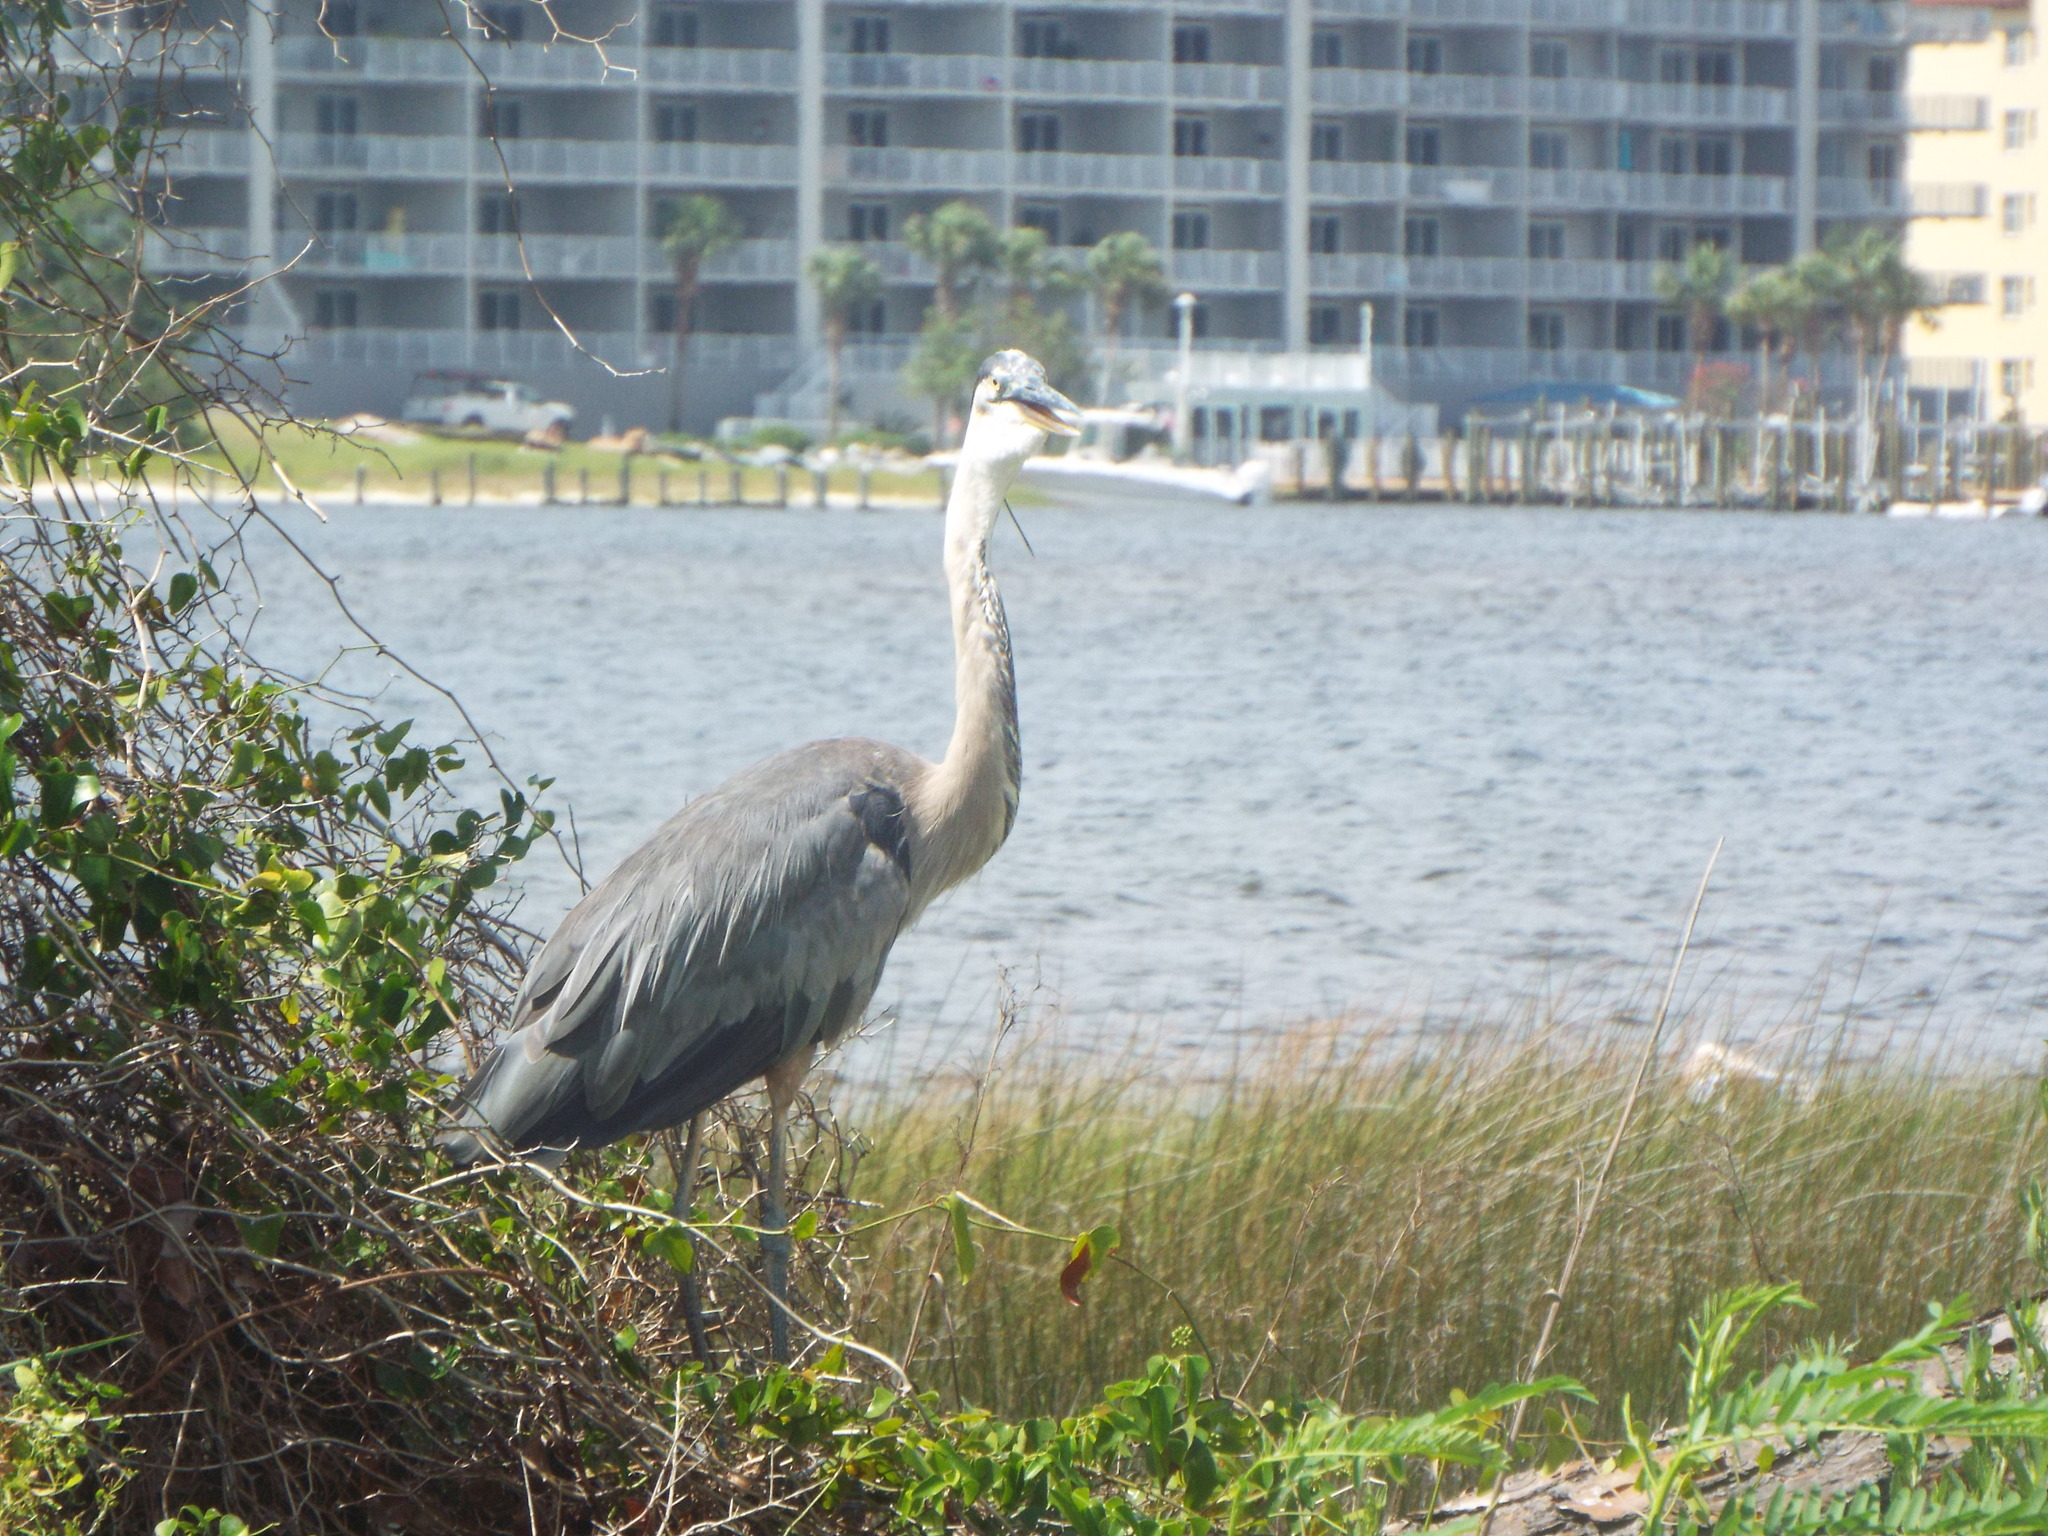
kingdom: Animalia
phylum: Chordata
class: Aves
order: Pelecaniformes
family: Ardeidae
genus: Ardea
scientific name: Ardea herodias
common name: Great blue heron
